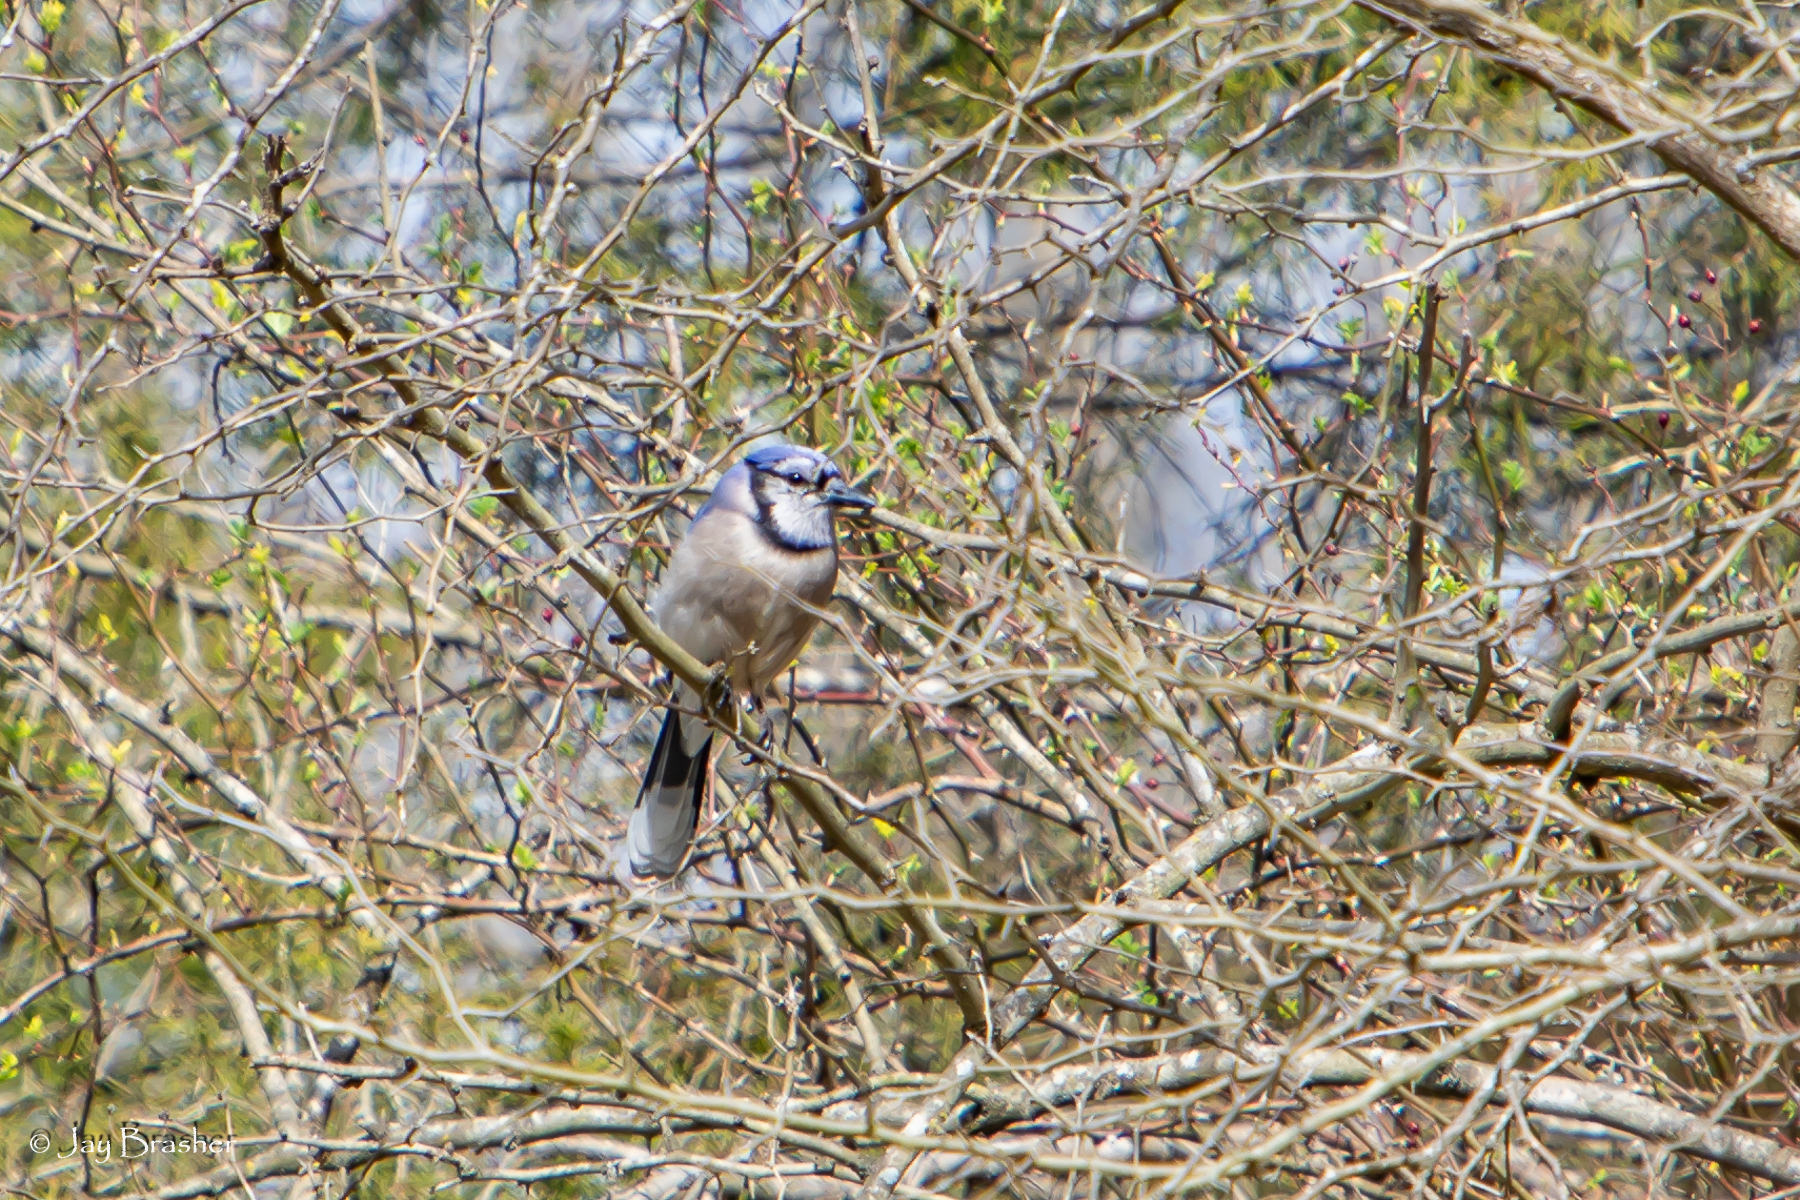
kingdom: Animalia
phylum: Chordata
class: Aves
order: Passeriformes
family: Corvidae
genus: Cyanocitta
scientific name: Cyanocitta cristata
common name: Blue jay
